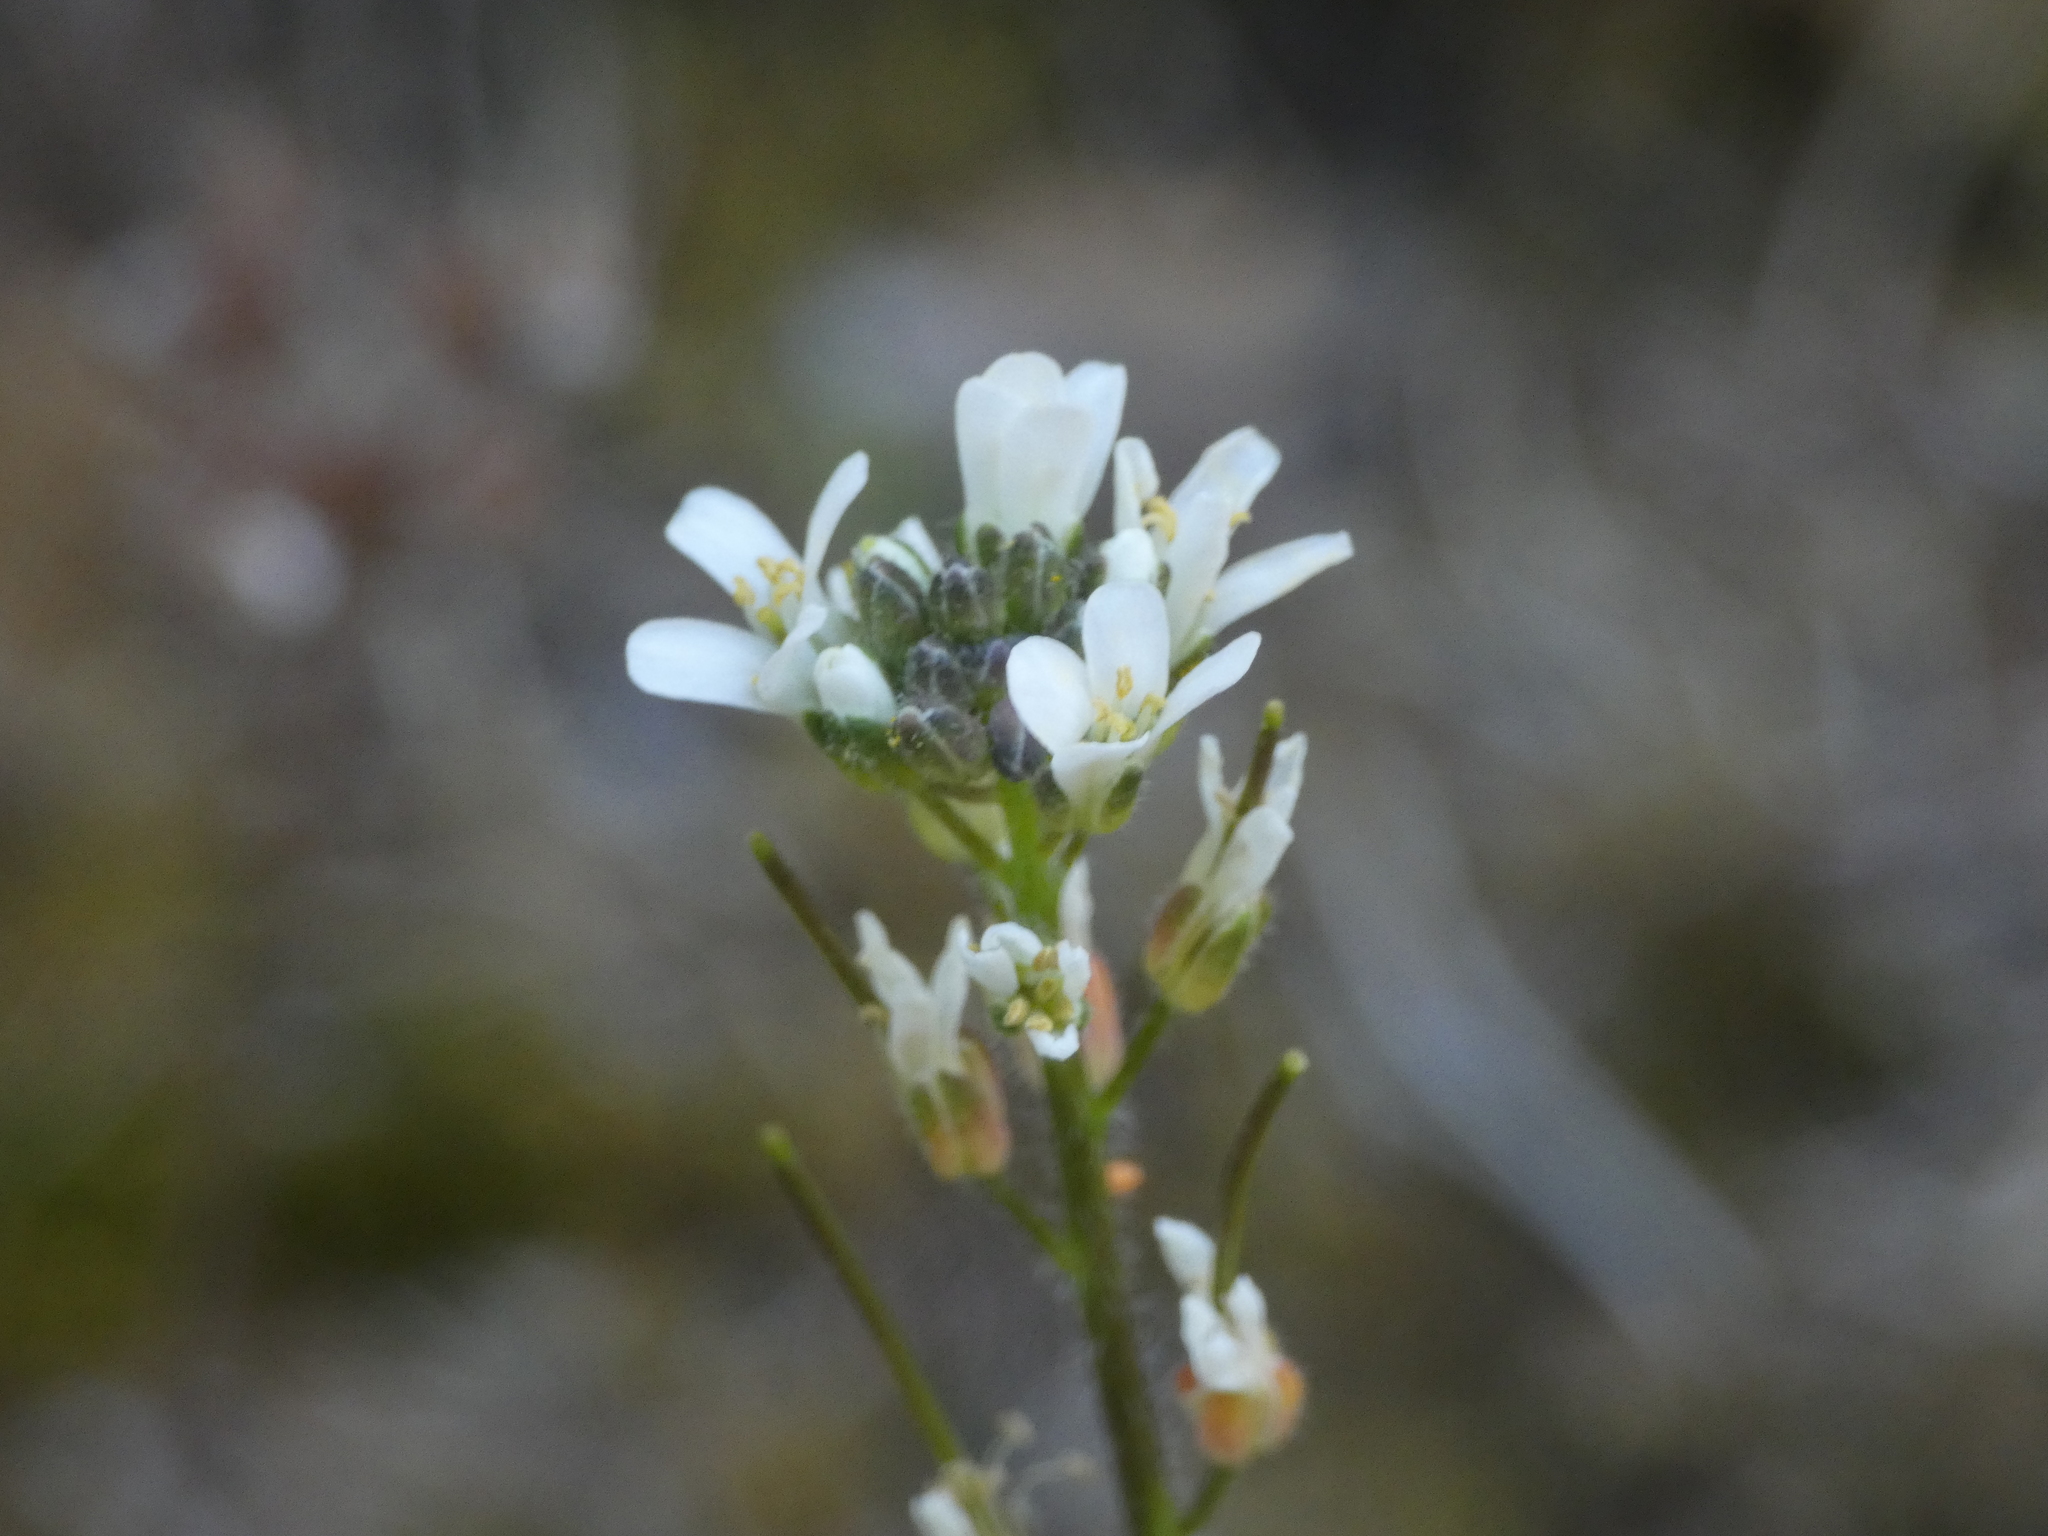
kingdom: Plantae
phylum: Tracheophyta
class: Magnoliopsida
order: Brassicales
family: Brassicaceae
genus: Arabis
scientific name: Arabis hirsuta
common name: Hairy rock-cress
